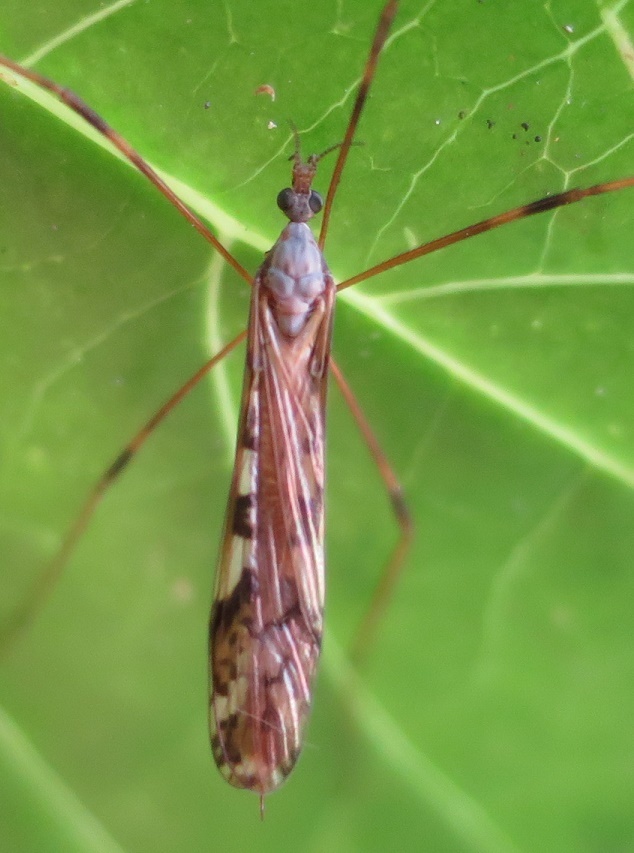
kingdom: Animalia
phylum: Arthropoda
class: Insecta
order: Diptera
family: Limoniidae
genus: Paralimnophila
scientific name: Paralimnophila skusei
